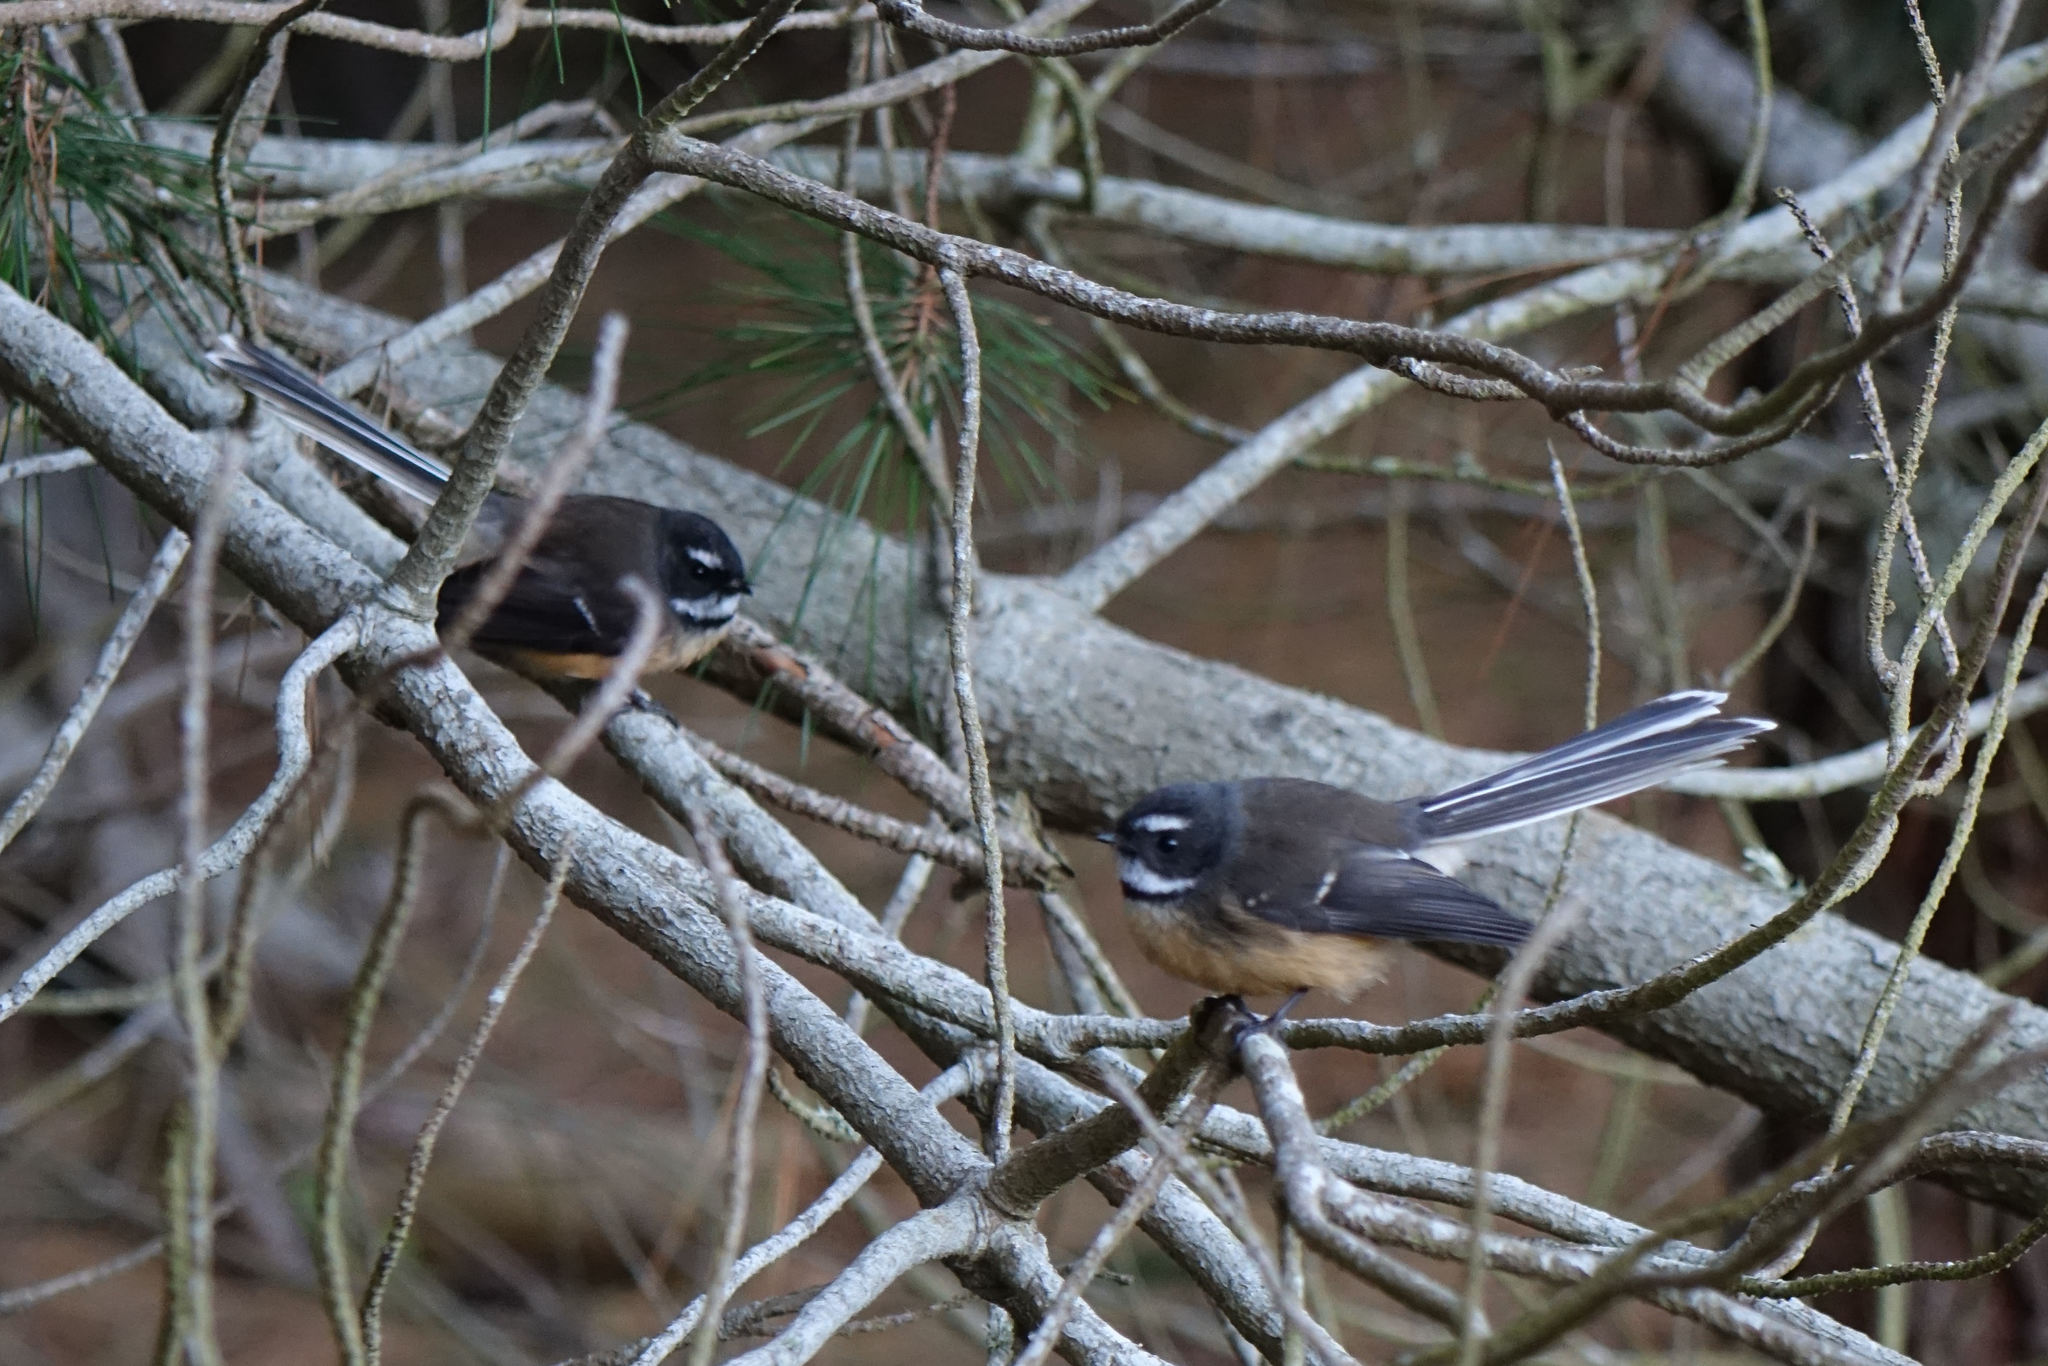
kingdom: Animalia
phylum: Chordata
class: Aves
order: Passeriformes
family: Rhipiduridae
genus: Rhipidura
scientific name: Rhipidura fuliginosa
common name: New zealand fantail
